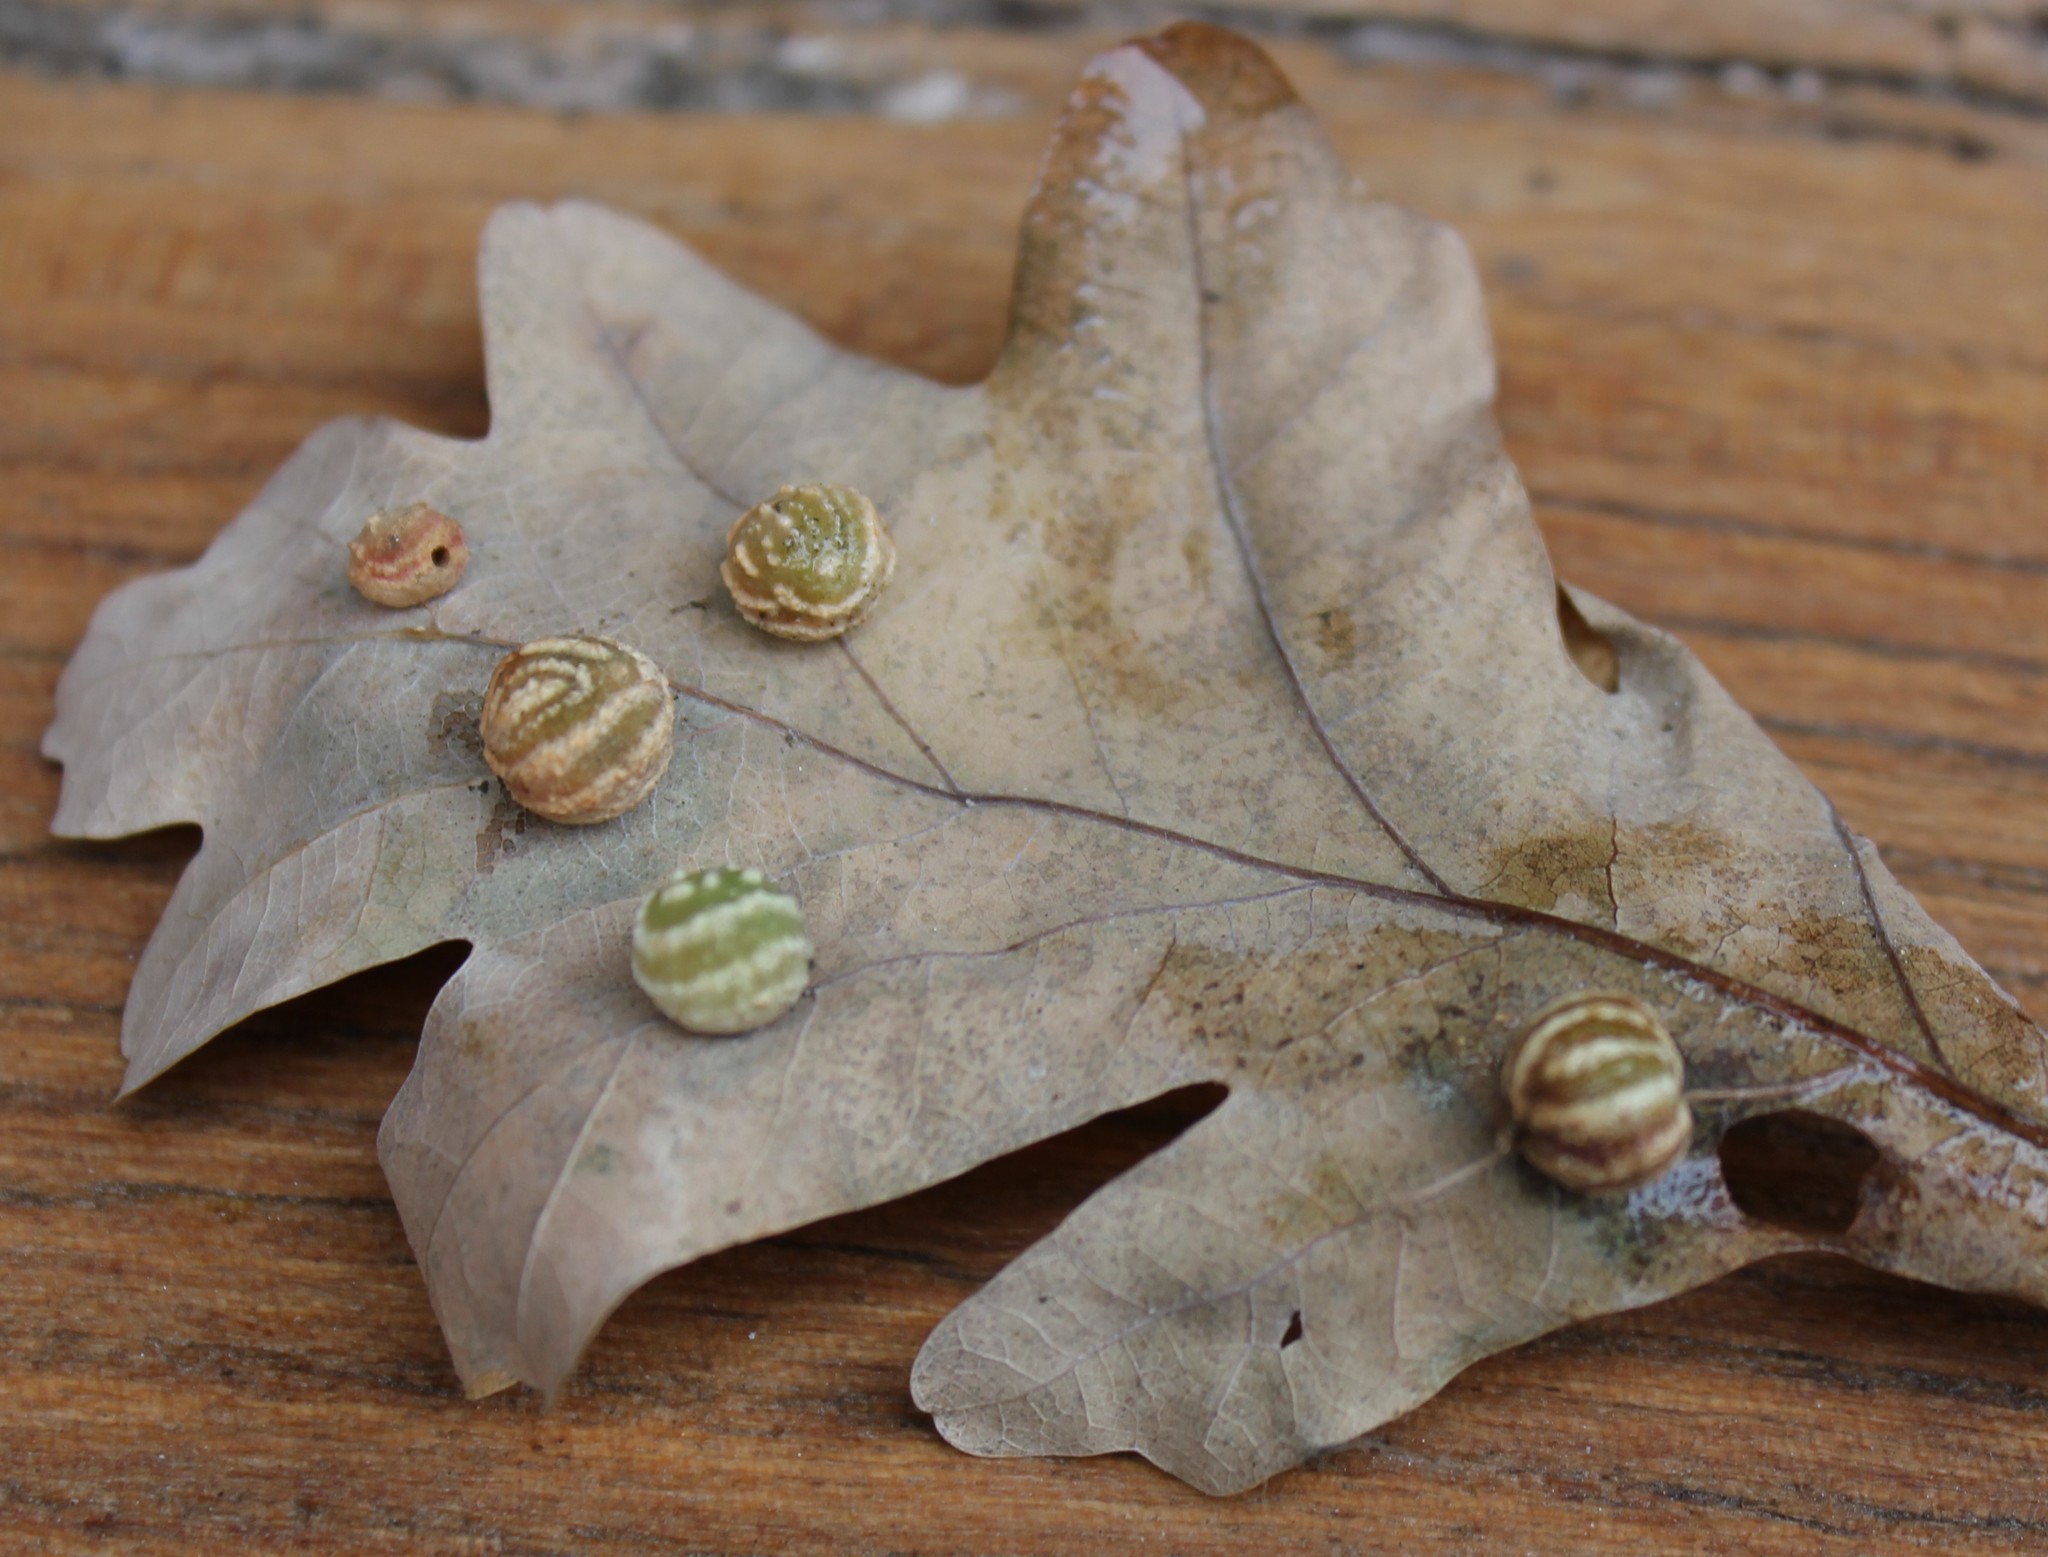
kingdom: Animalia
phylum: Arthropoda
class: Insecta
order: Hymenoptera
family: Cynipidae
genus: Cynips
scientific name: Cynips longiventris
